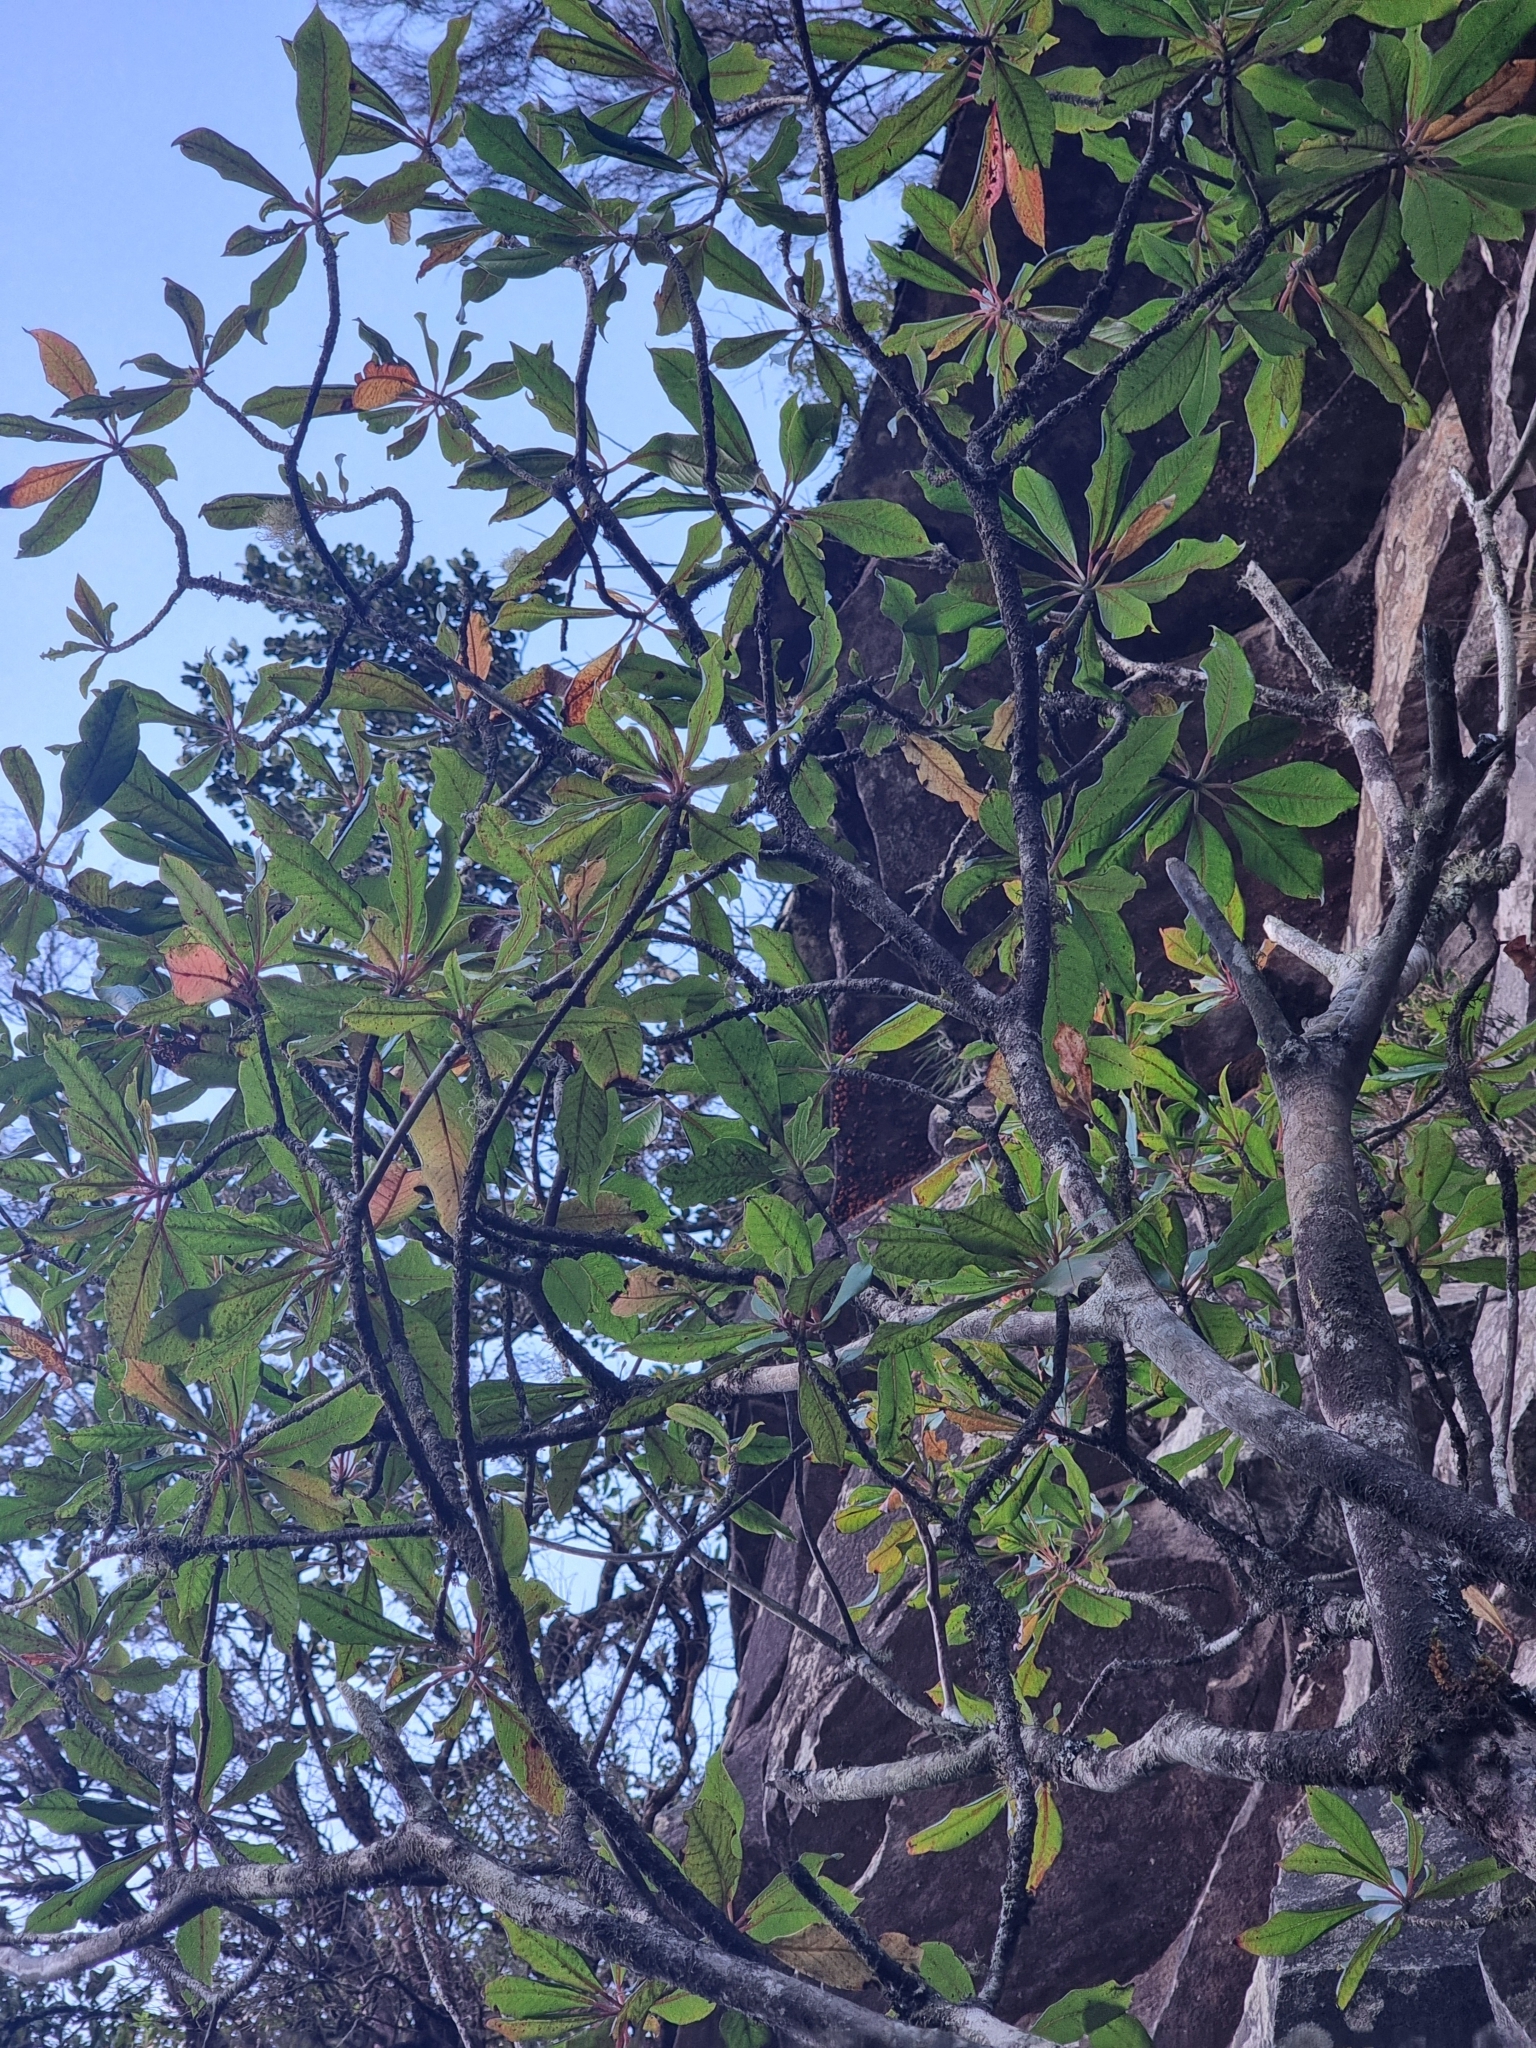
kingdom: Plantae
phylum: Tracheophyta
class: Magnoliopsida
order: Ericales
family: Clethraceae
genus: Clethra
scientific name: Clethra arborea
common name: Lily-of-the-valley-tree
